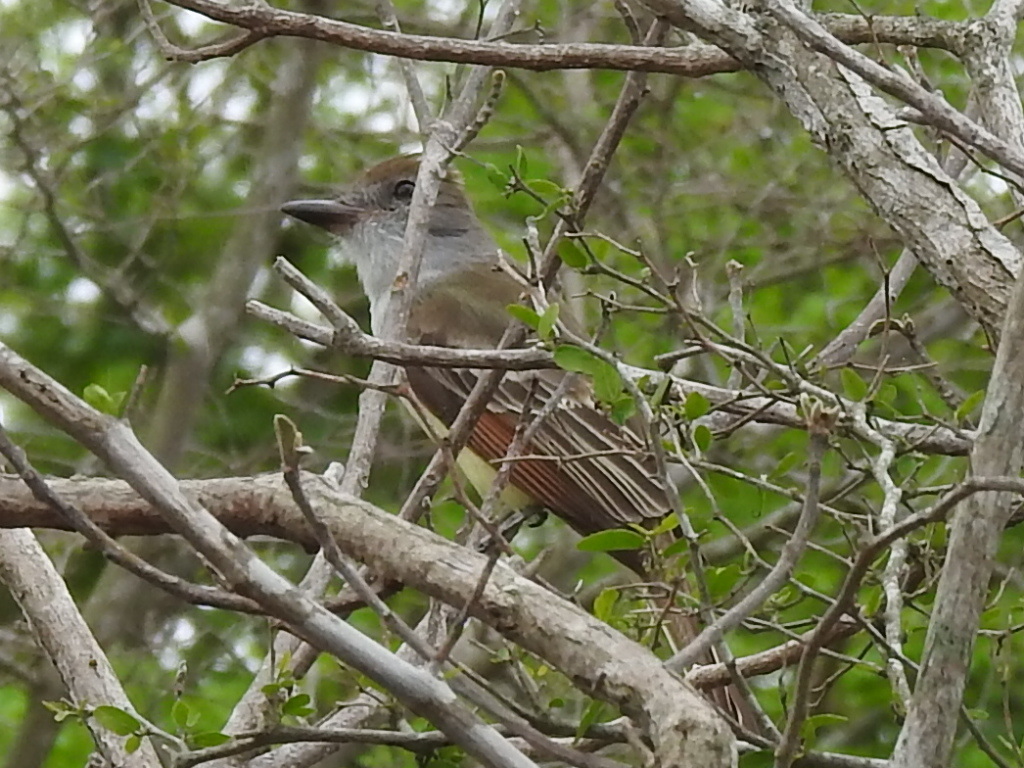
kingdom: Animalia
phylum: Chordata
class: Aves
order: Passeriformes
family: Tyrannidae
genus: Myiarchus
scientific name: Myiarchus crinitus
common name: Great crested flycatcher
